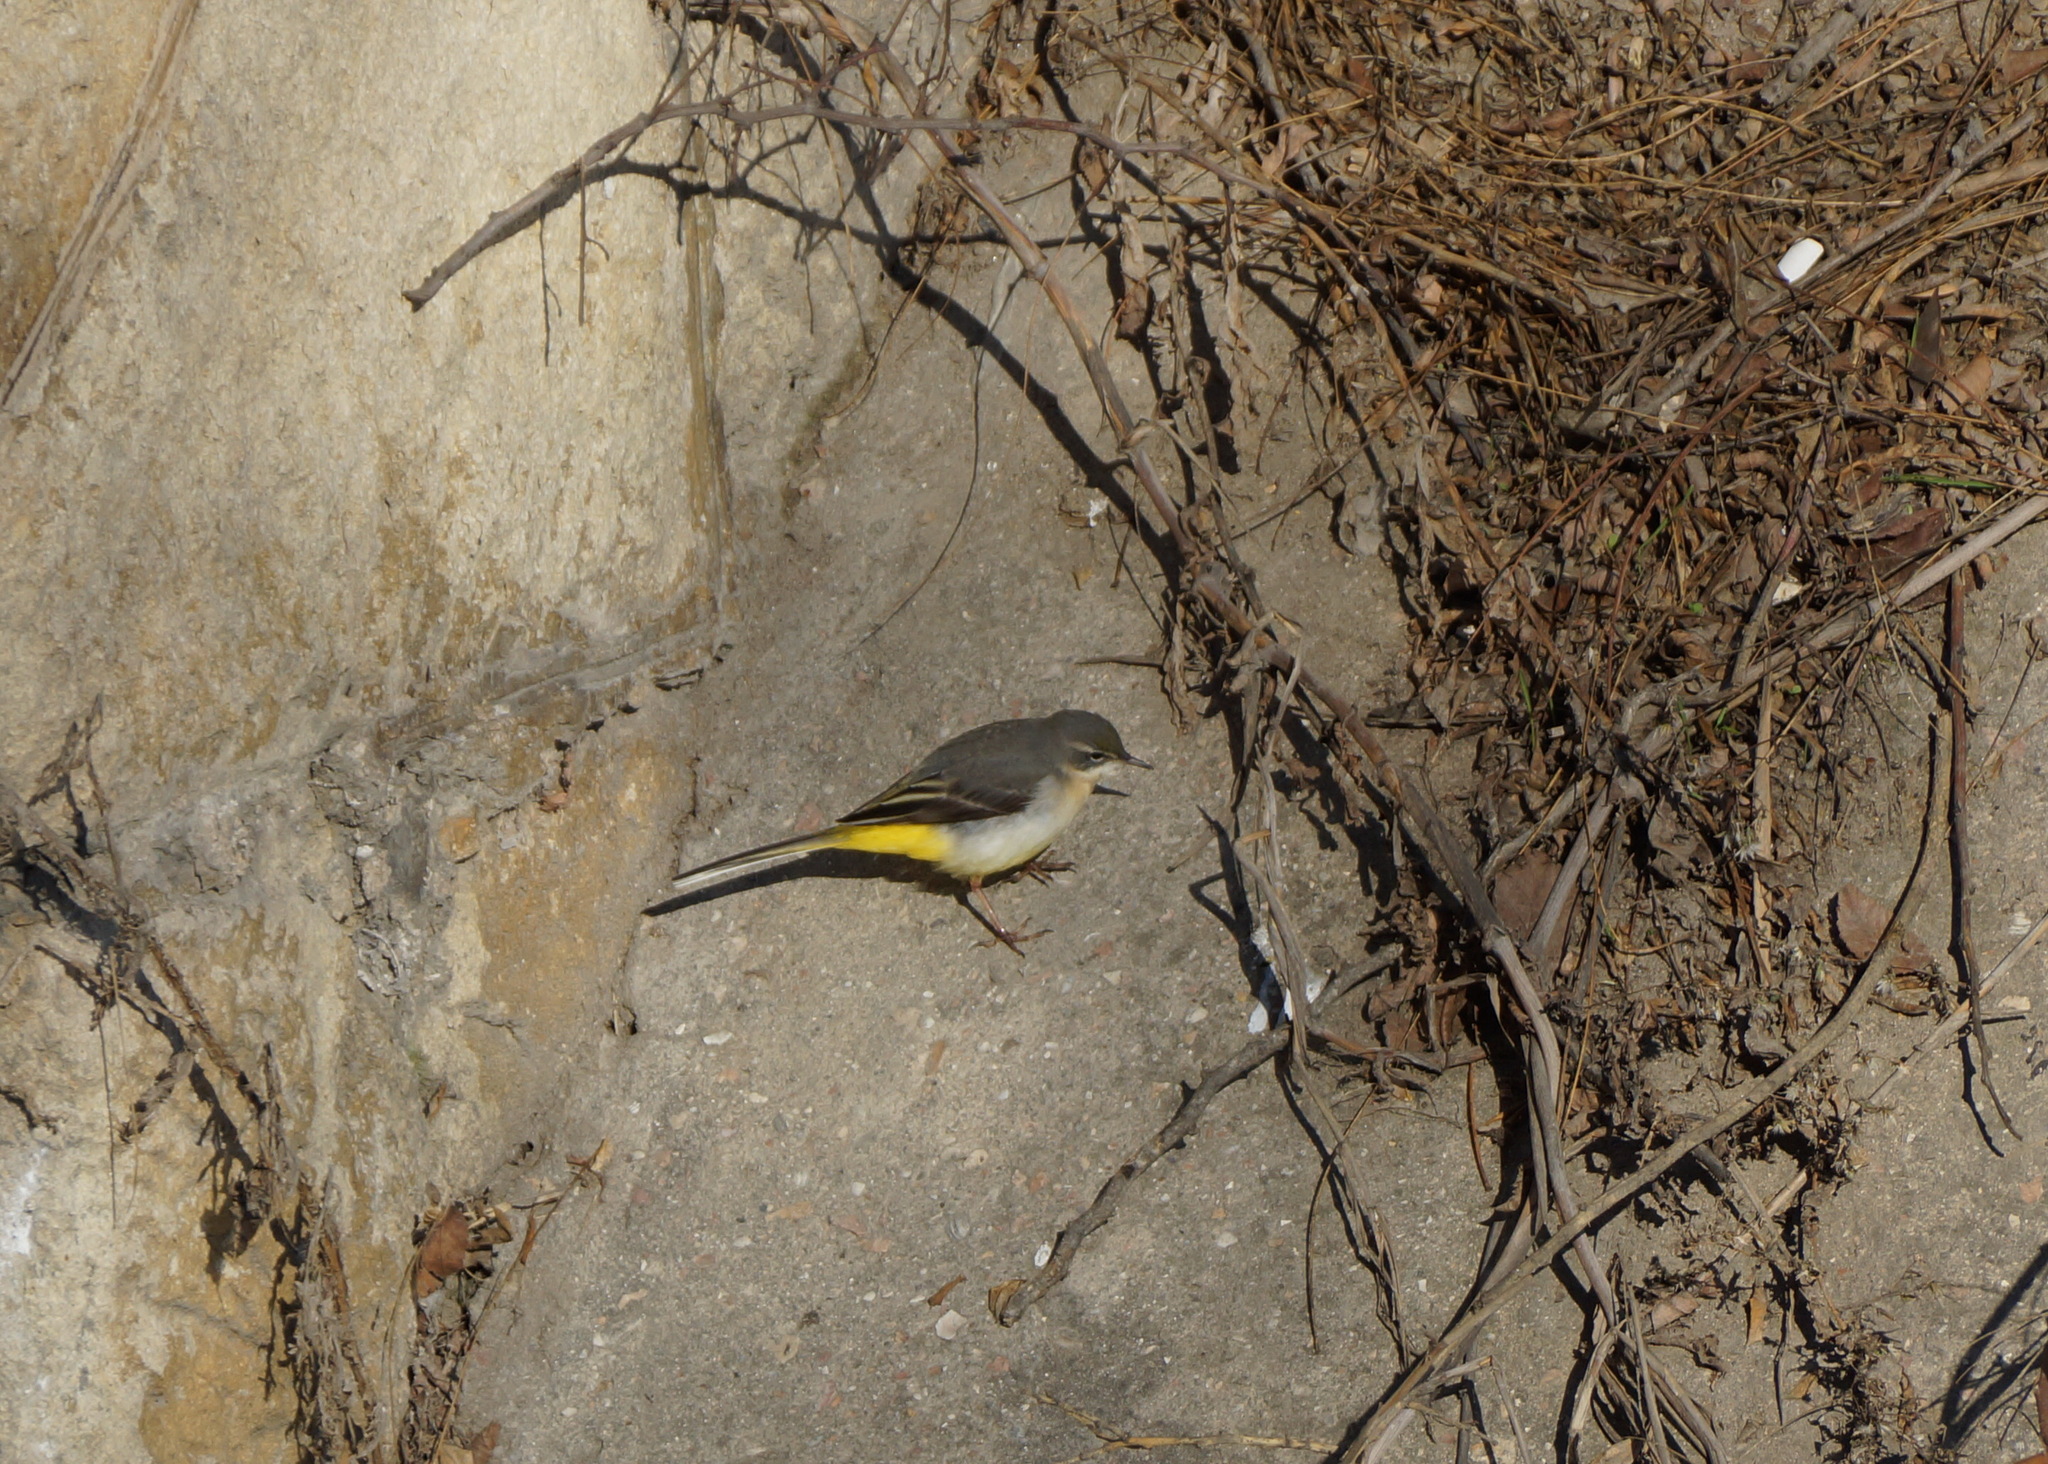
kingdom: Animalia
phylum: Chordata
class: Aves
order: Passeriformes
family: Motacillidae
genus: Motacilla
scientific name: Motacilla cinerea
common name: Grey wagtail
